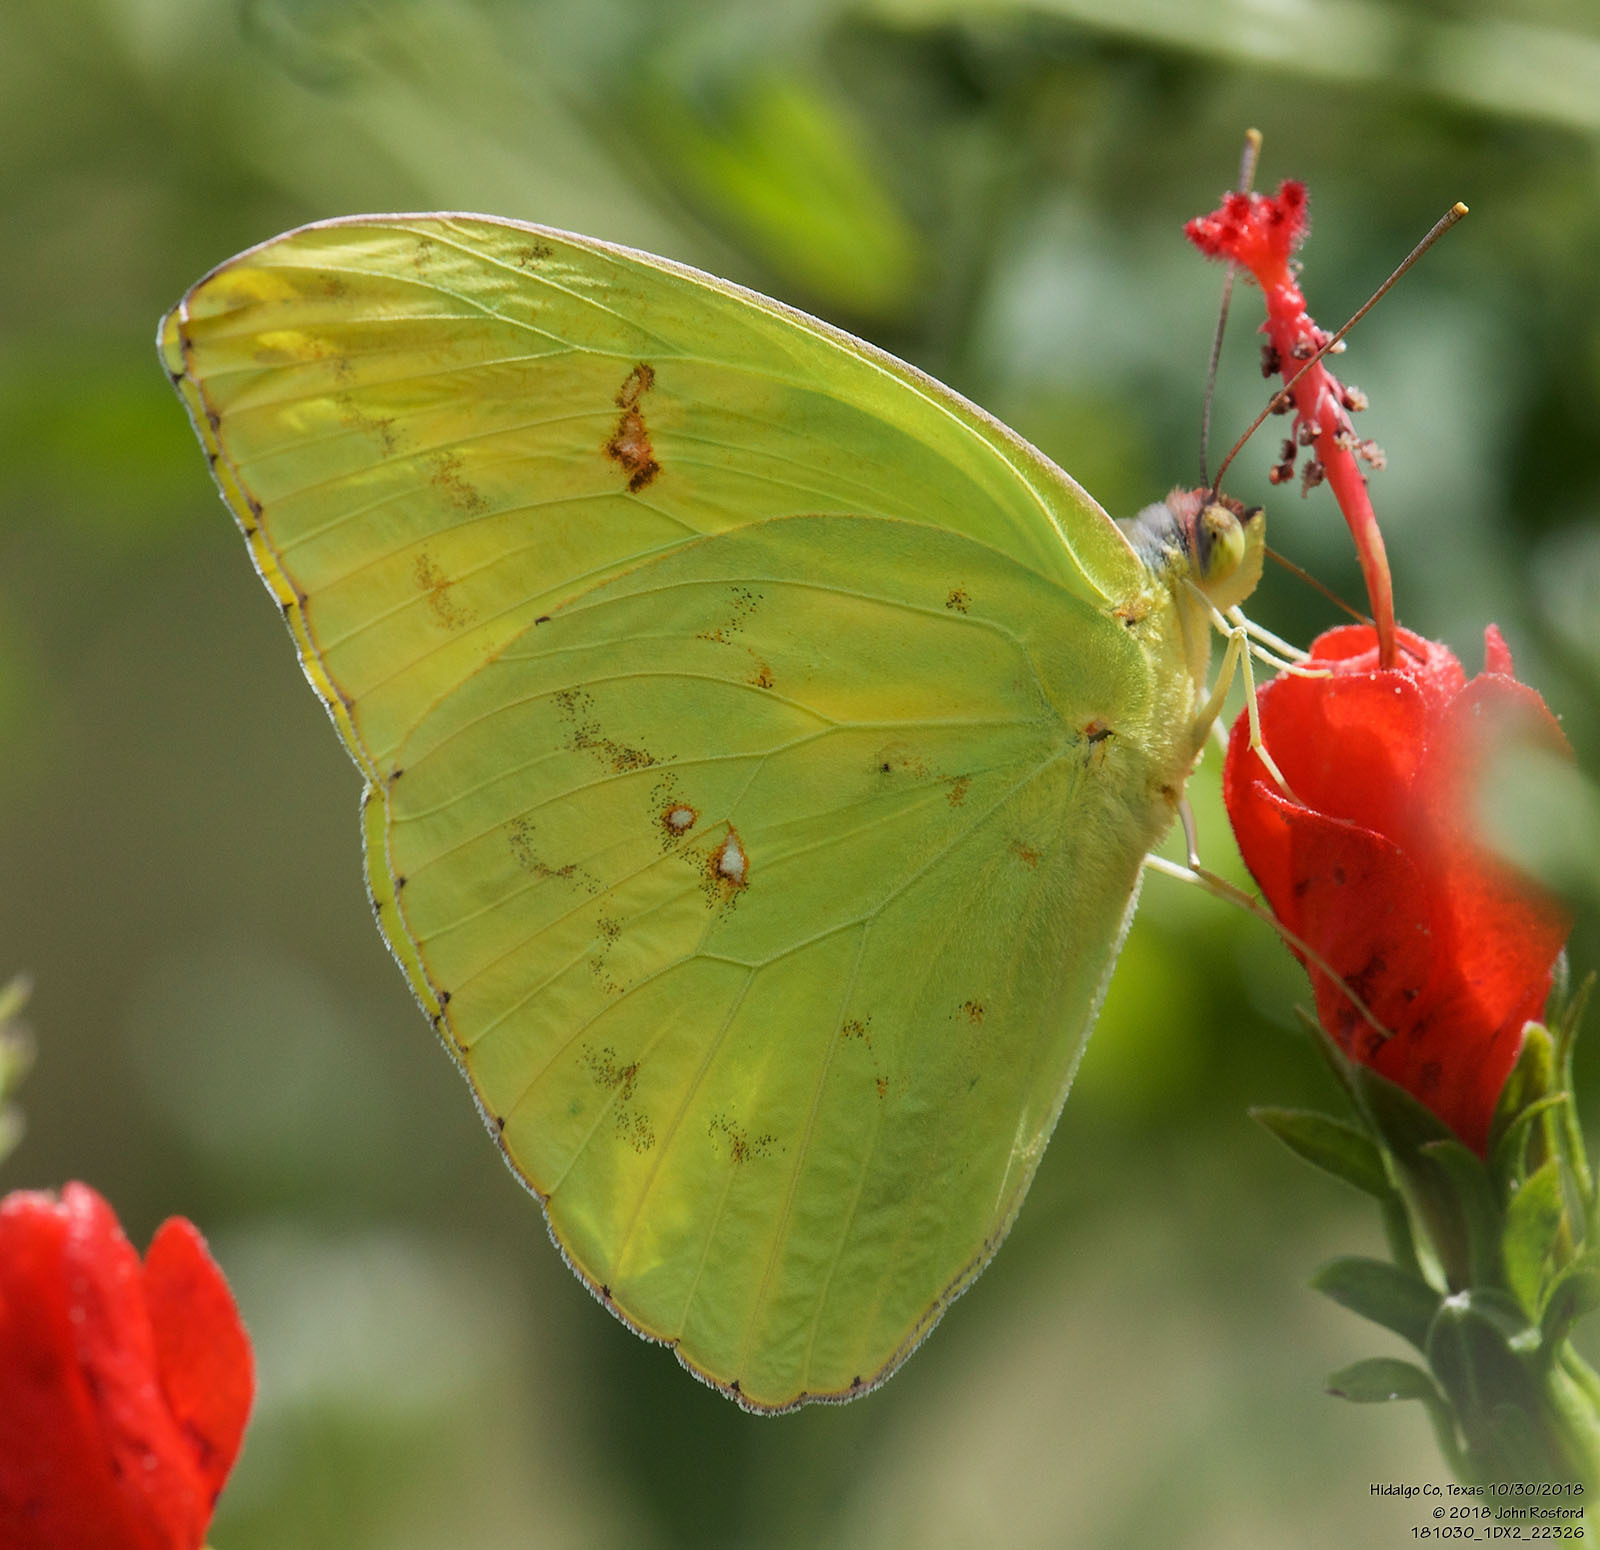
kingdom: Animalia
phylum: Arthropoda
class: Insecta
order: Lepidoptera
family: Pieridae
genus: Phoebis
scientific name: Phoebis sennae
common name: Cloudless sulphur
